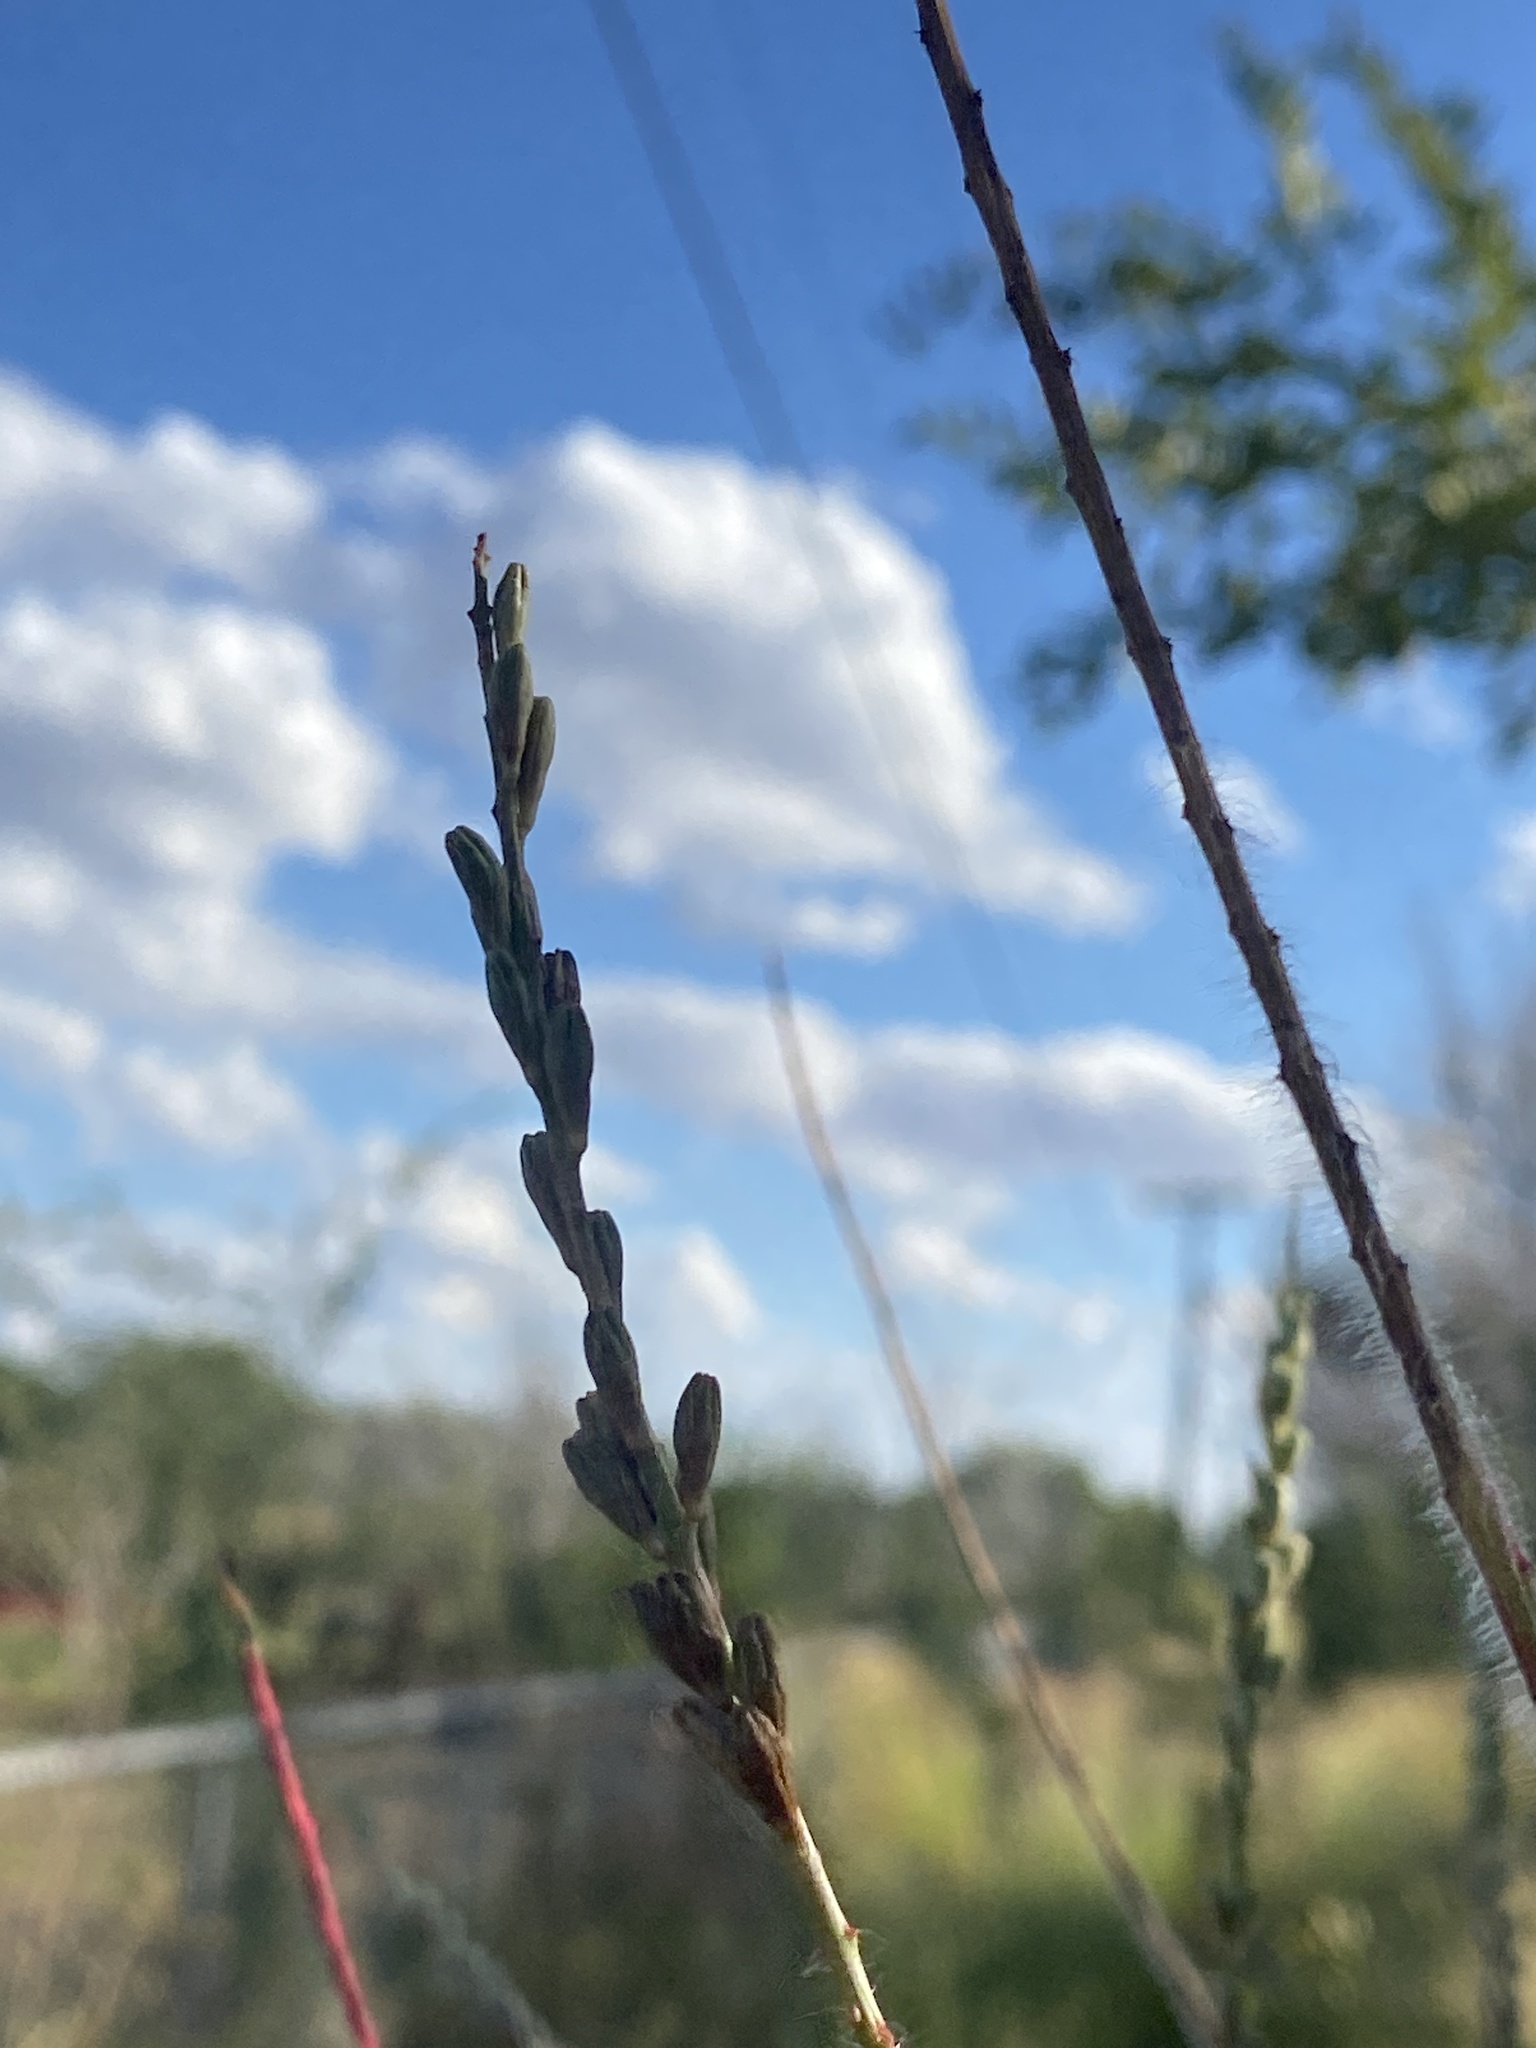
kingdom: Plantae
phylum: Tracheophyta
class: Magnoliopsida
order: Myrtales
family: Onagraceae
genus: Oenothera
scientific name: Oenothera curtiflora
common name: Velvetweed
